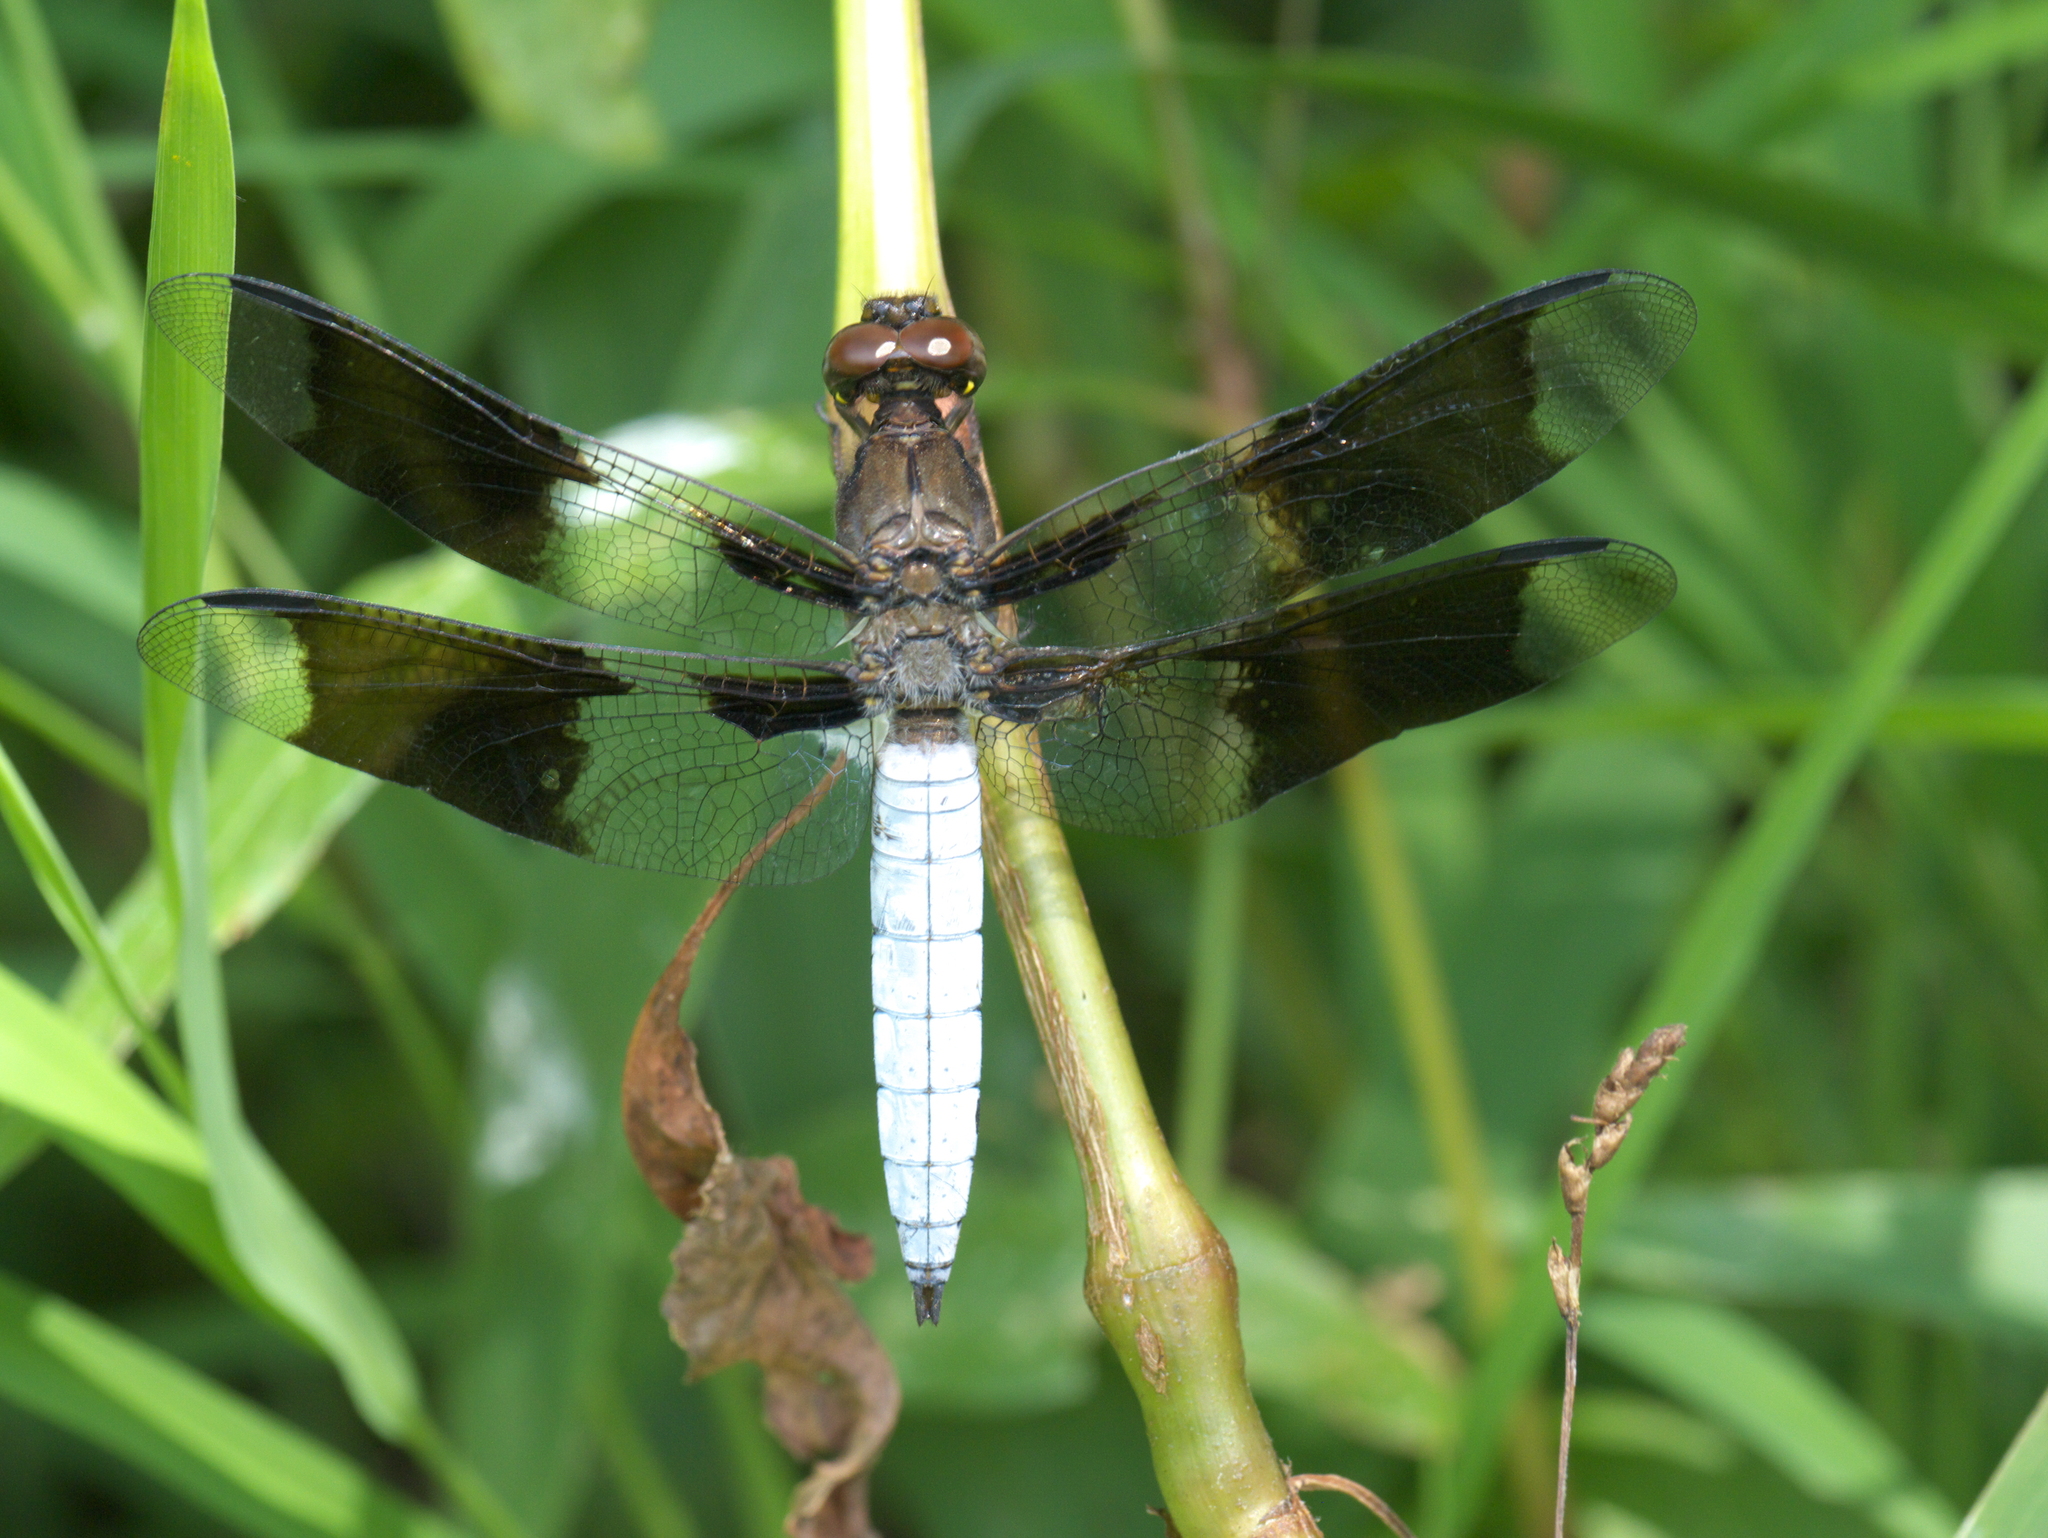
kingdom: Animalia
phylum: Arthropoda
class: Insecta
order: Odonata
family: Libellulidae
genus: Plathemis
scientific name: Plathemis lydia
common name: Common whitetail
